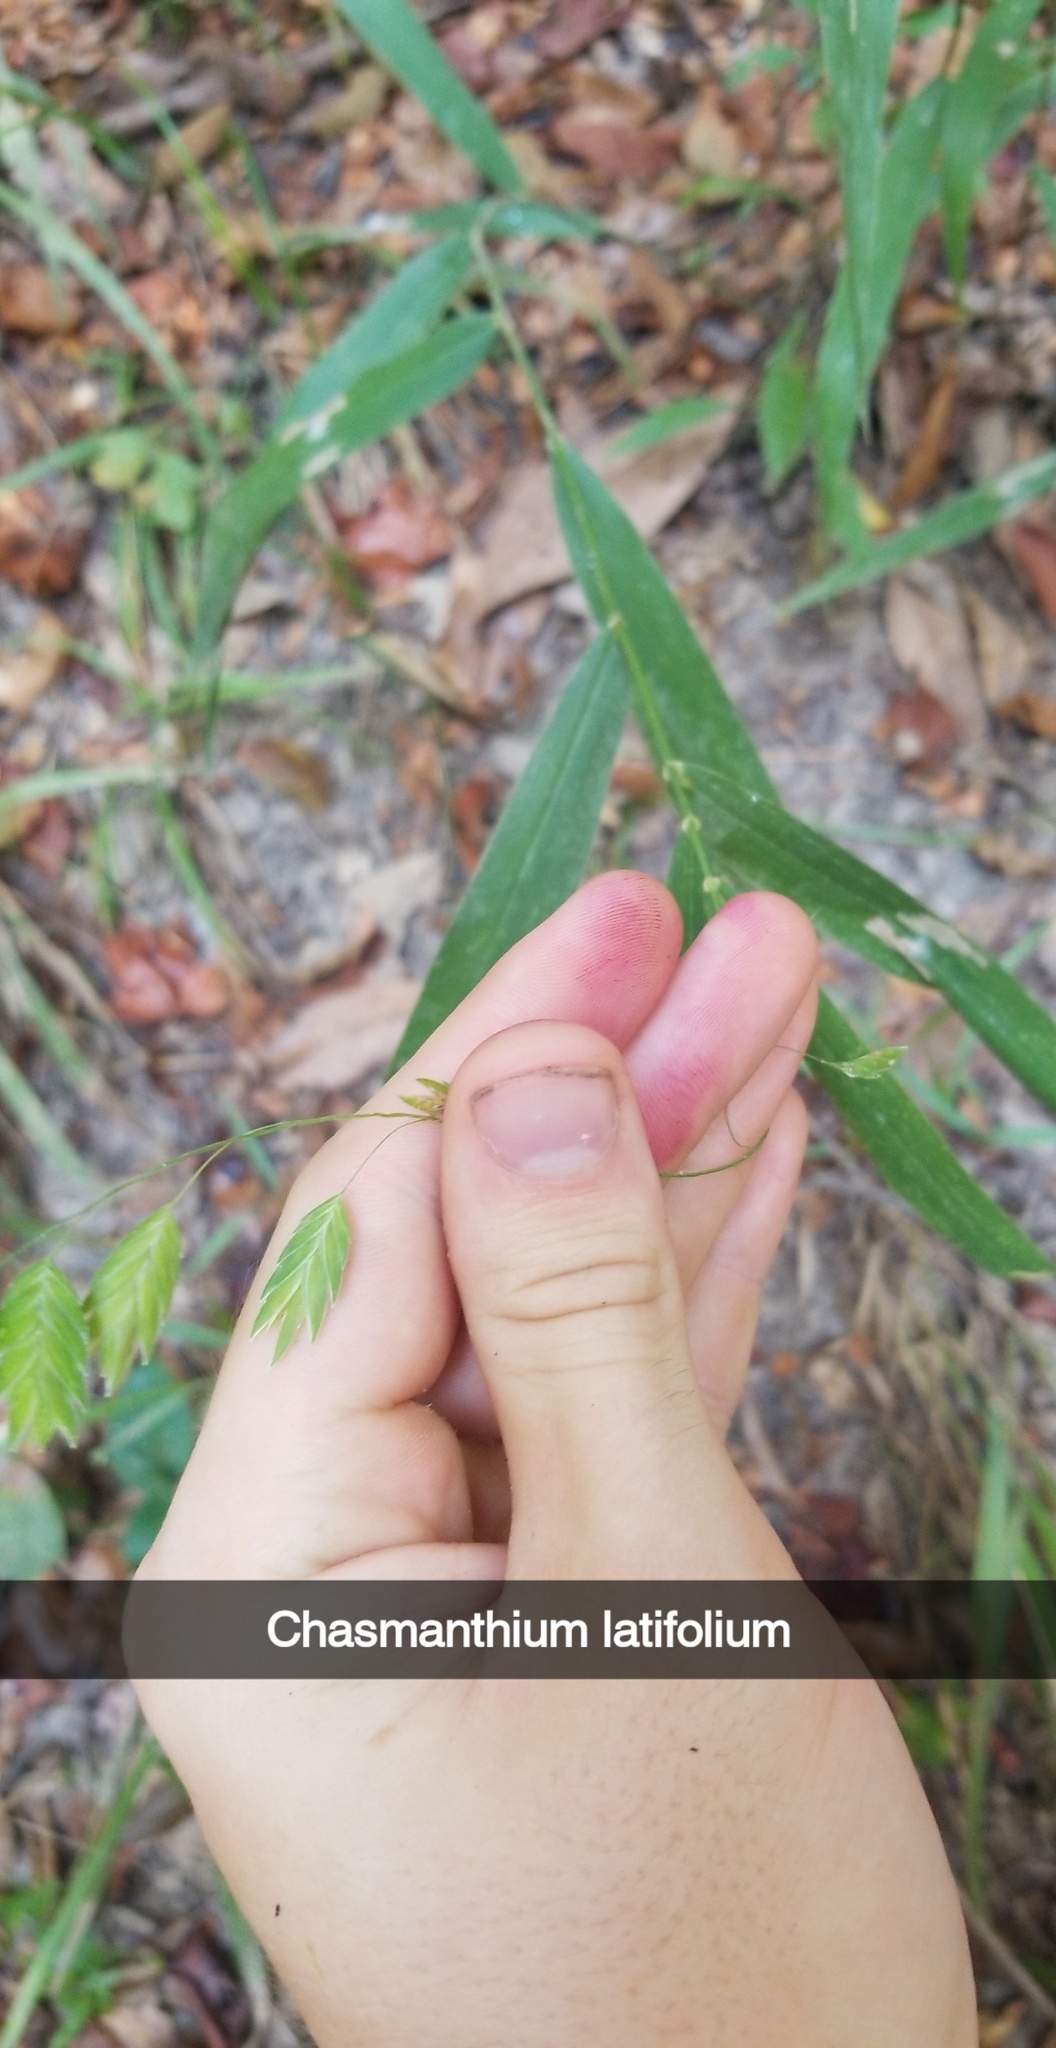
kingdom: Plantae
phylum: Tracheophyta
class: Liliopsida
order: Poales
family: Poaceae
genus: Chasmanthium
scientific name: Chasmanthium latifolium
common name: Broad-leaved chasmanthium
